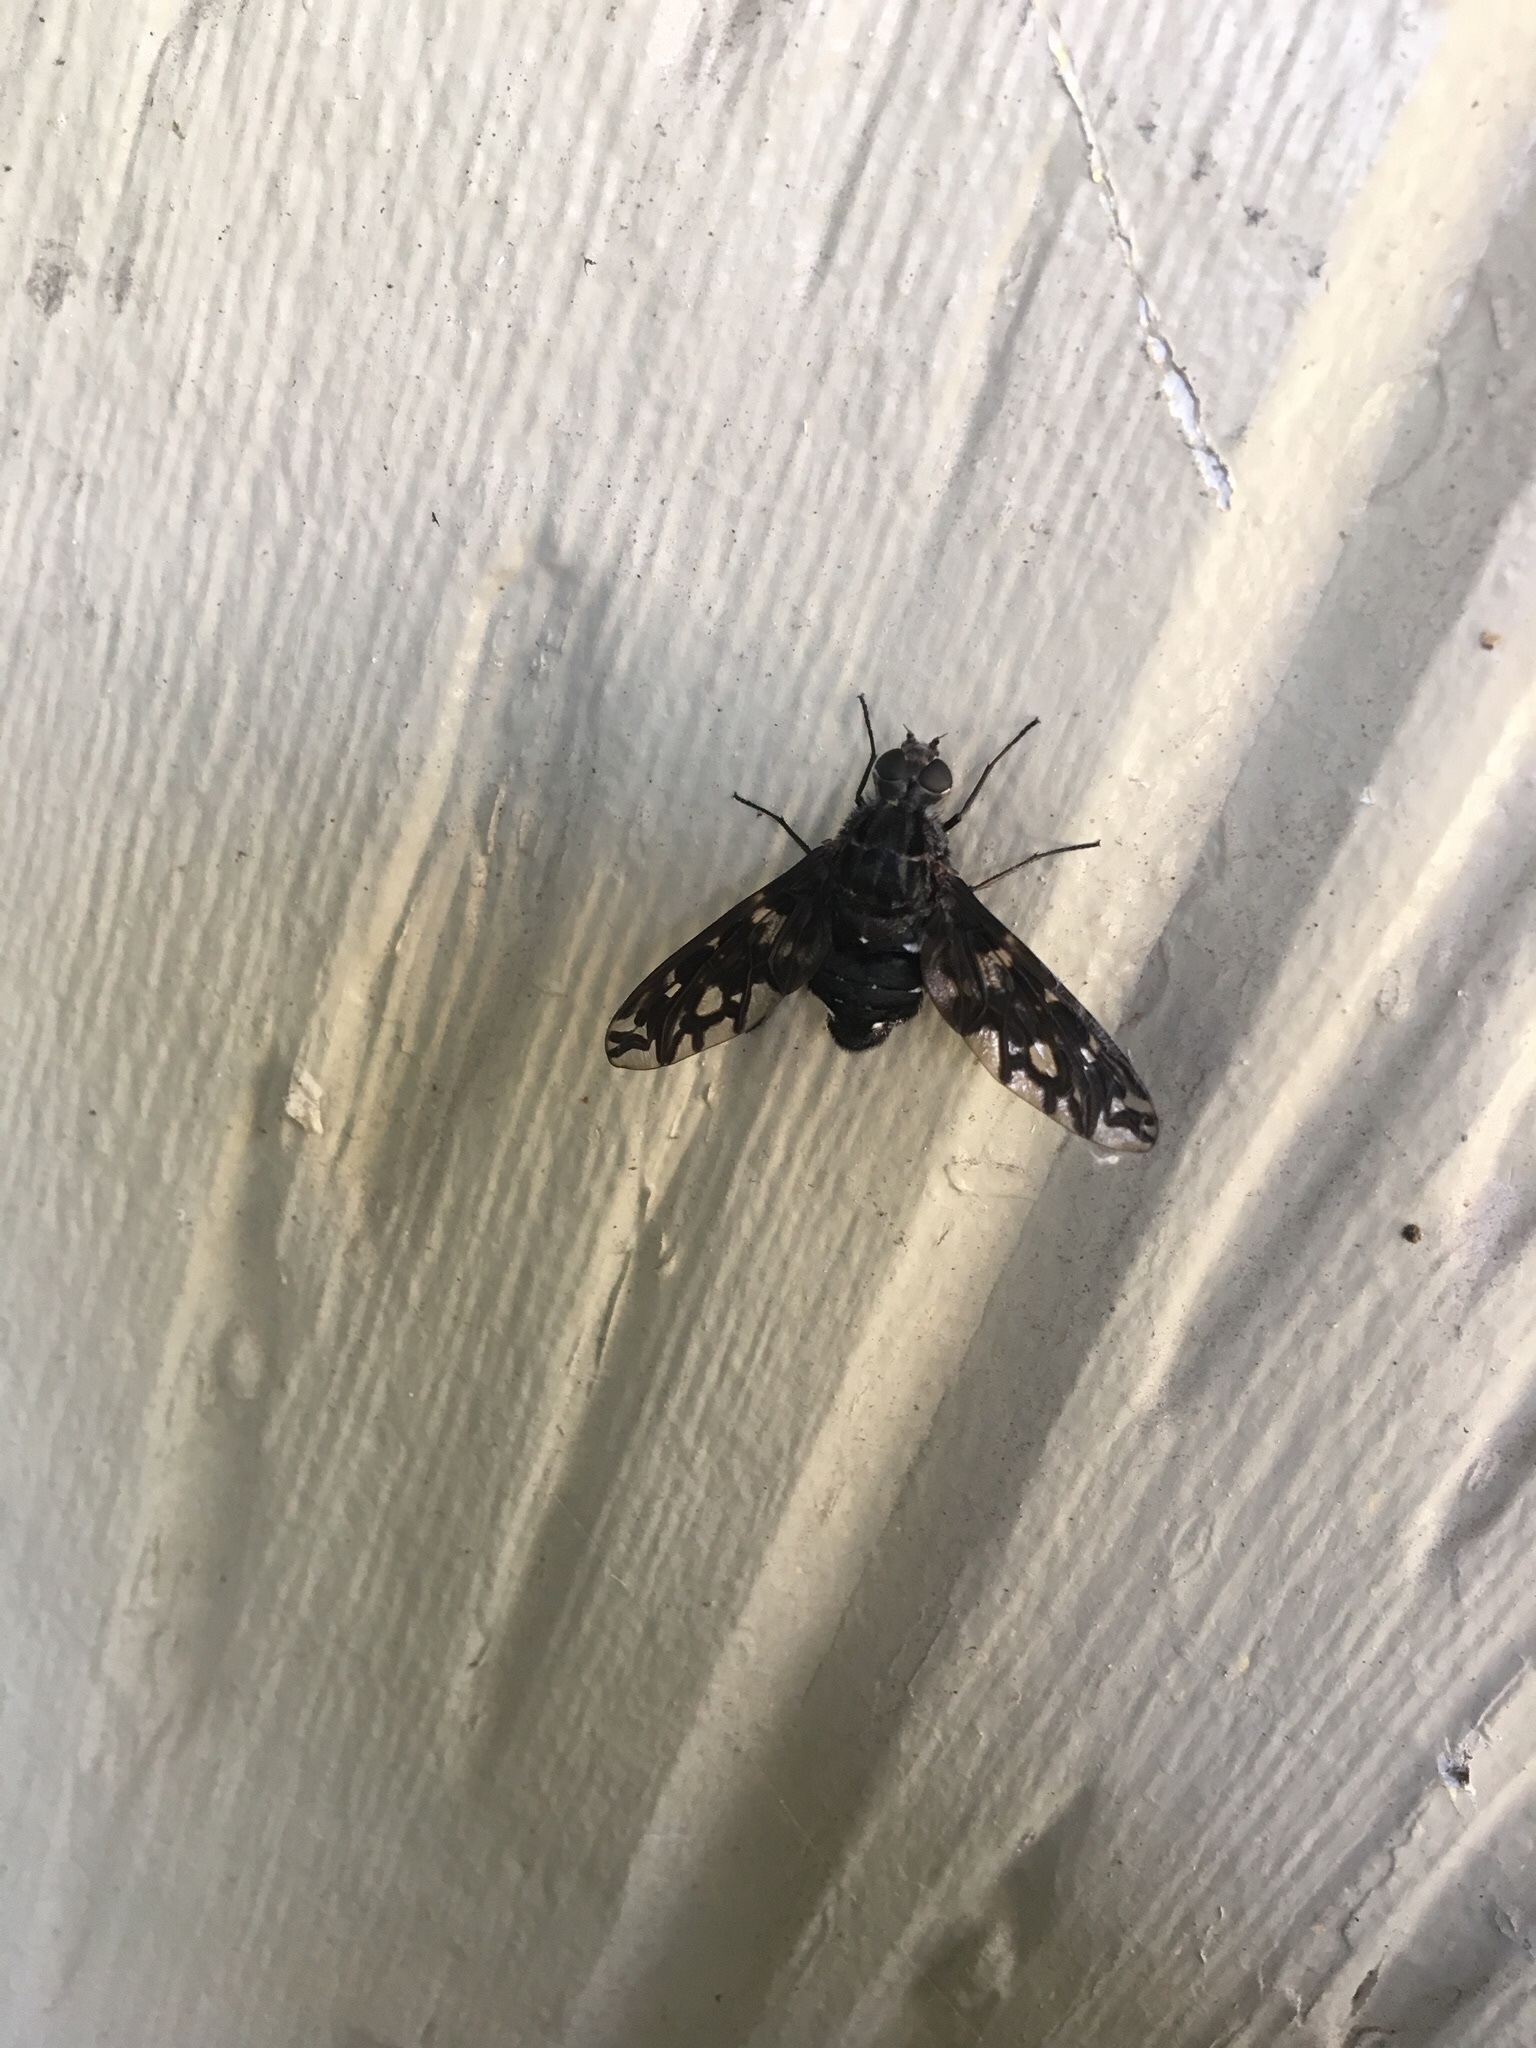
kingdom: Animalia
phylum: Arthropoda
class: Insecta
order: Diptera
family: Bombyliidae
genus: Xenox
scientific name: Xenox tigrinus
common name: Tiger bee fly
